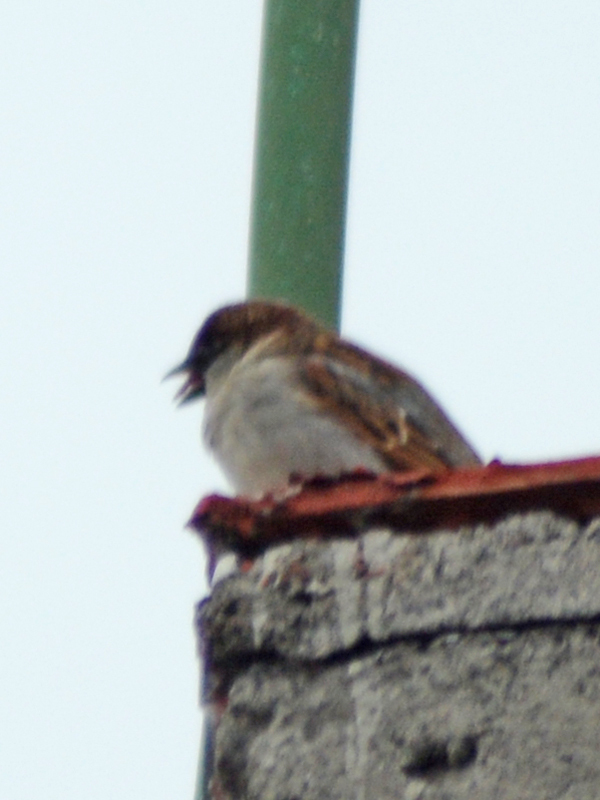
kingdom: Animalia
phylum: Chordata
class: Aves
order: Passeriformes
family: Passeridae
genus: Passer
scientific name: Passer domesticus
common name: House sparrow
